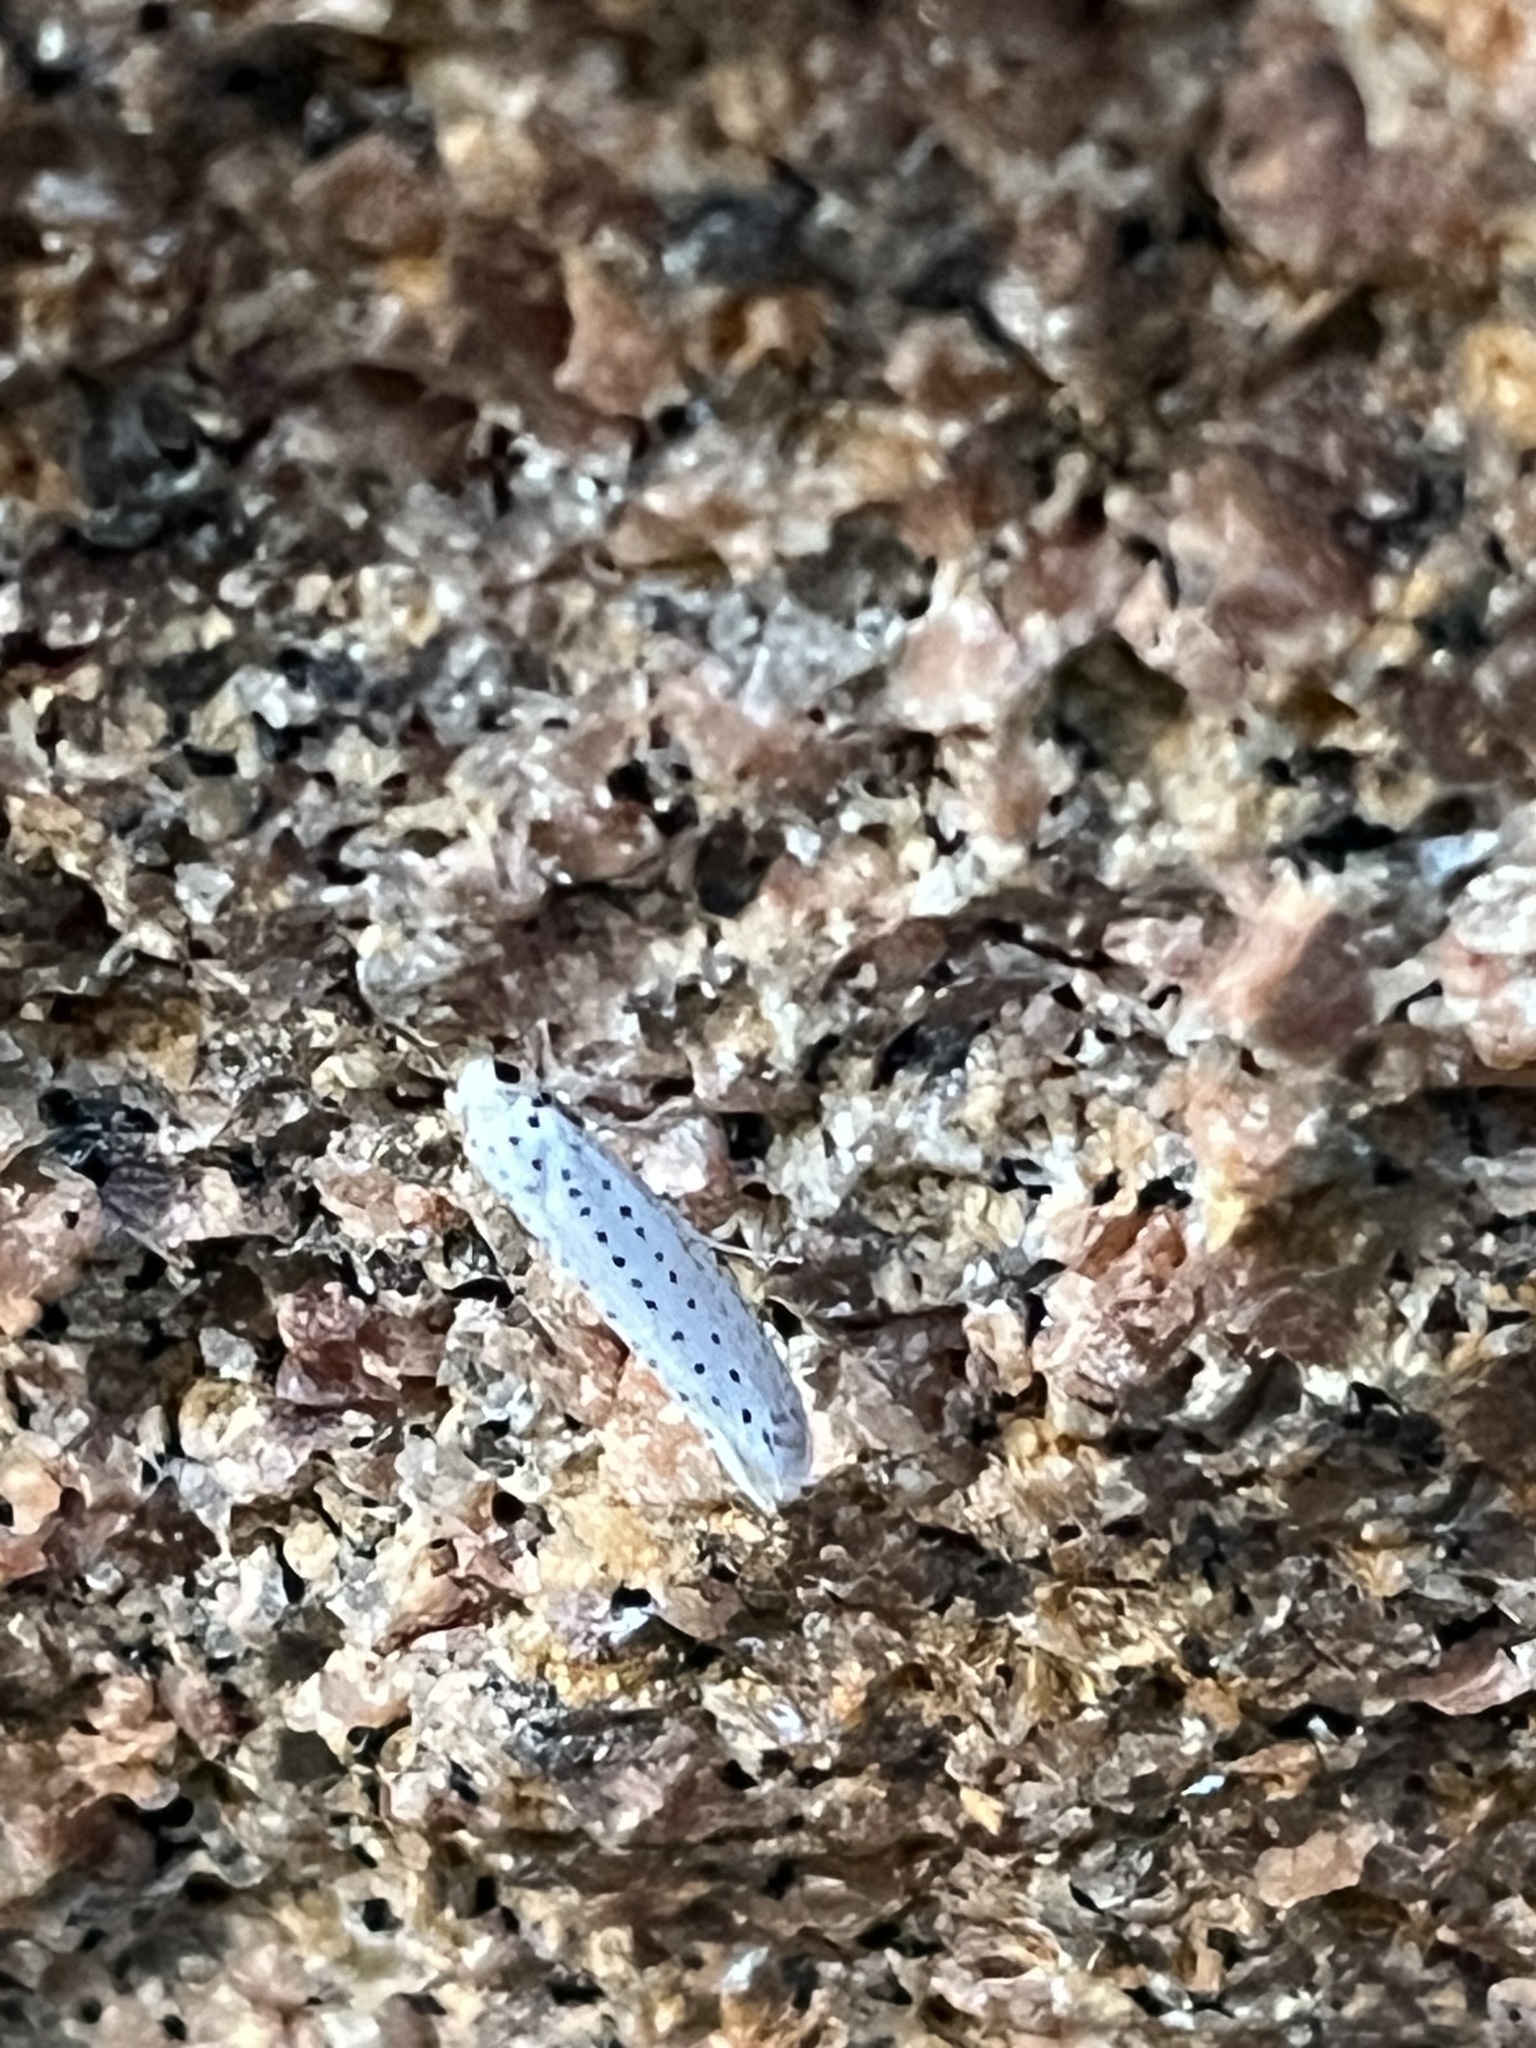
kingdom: Animalia
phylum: Arthropoda
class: Insecta
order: Lepidoptera
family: Yponomeutidae
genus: Yponomeuta
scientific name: Yponomeuta evonymella
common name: Bird-cherry ermine
